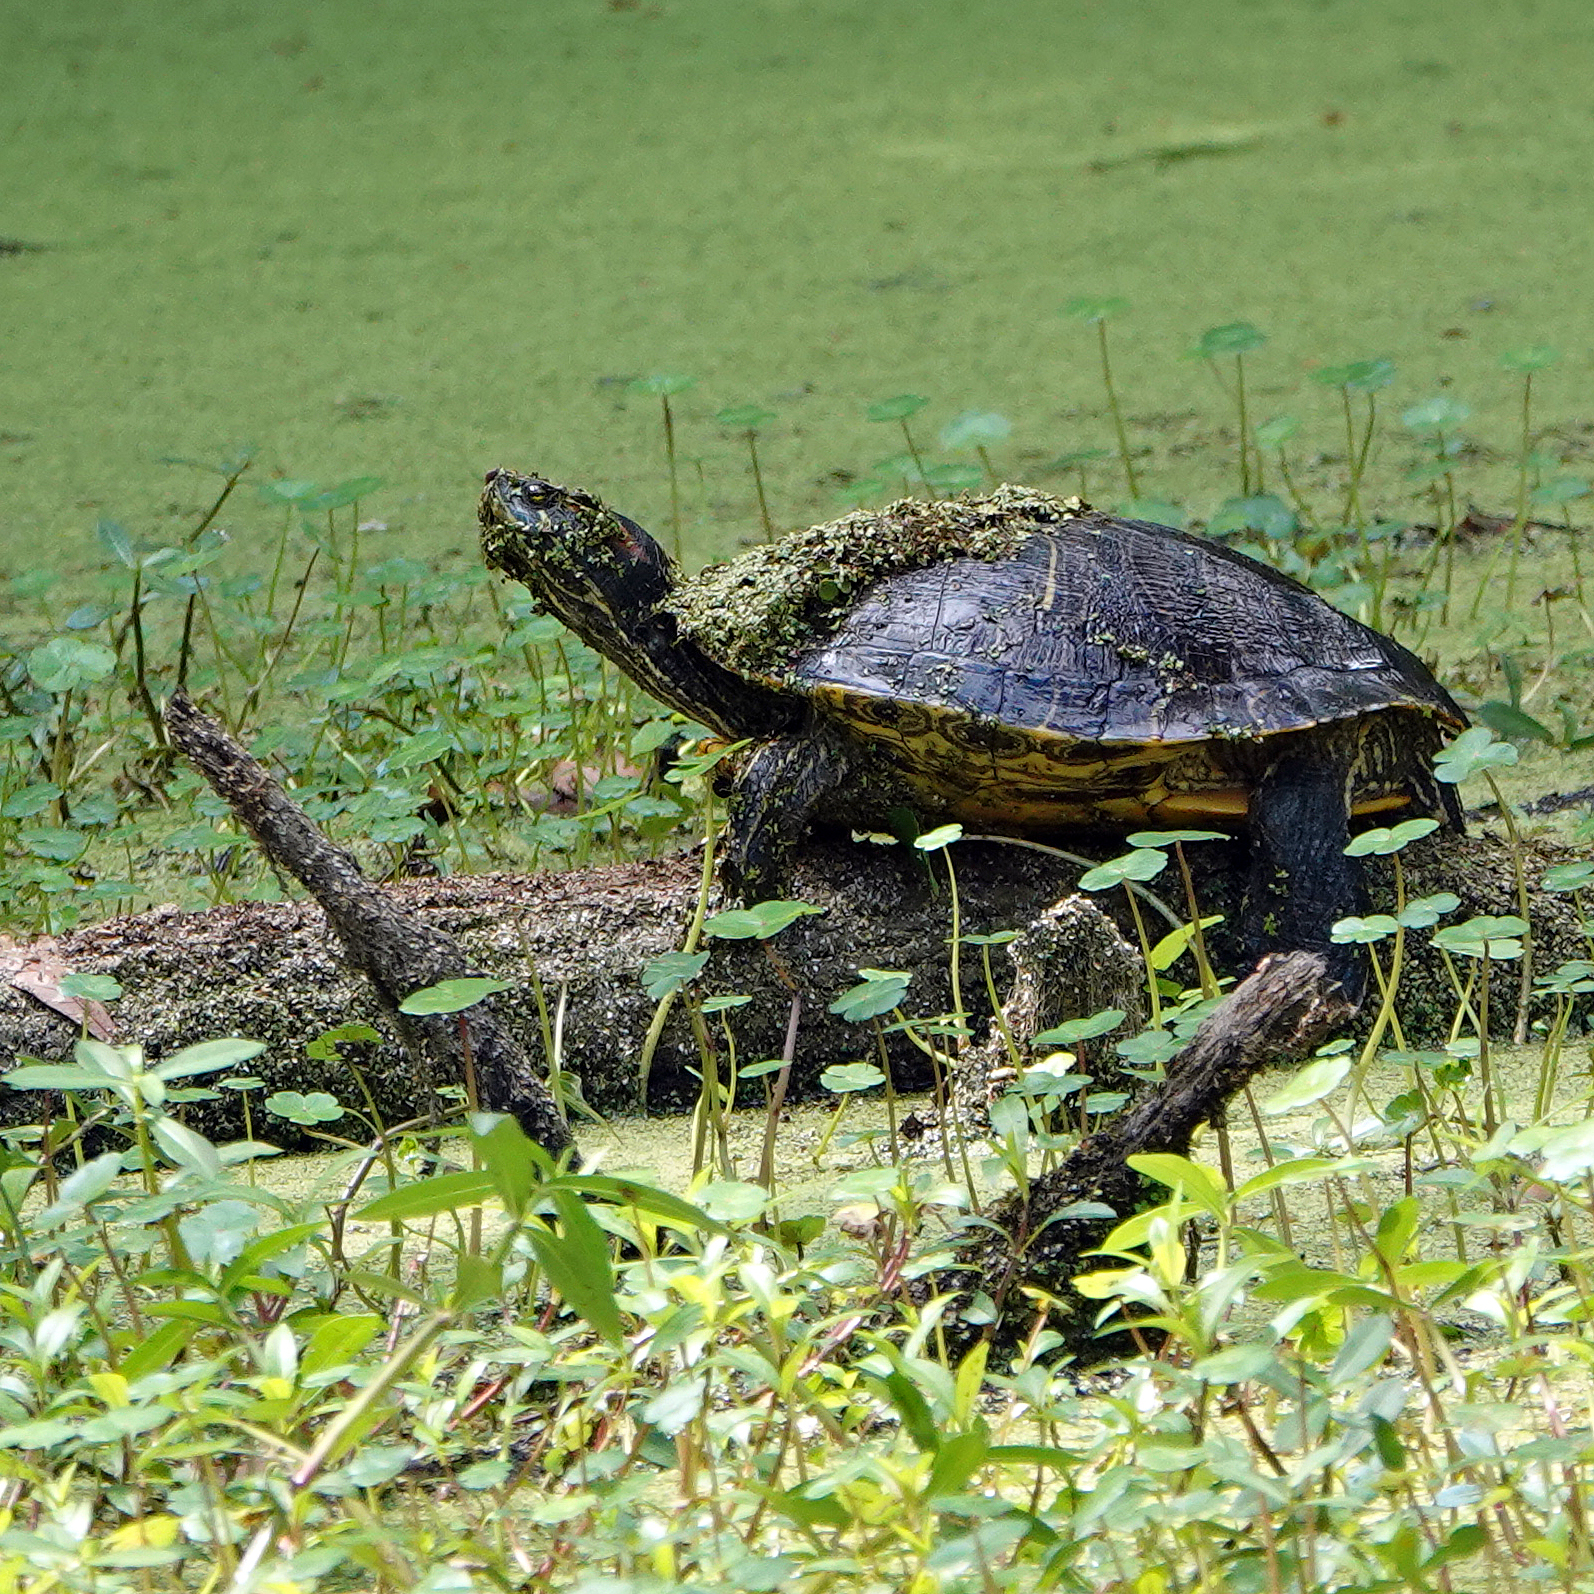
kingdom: Animalia
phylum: Chordata
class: Testudines
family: Emydidae
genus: Trachemys
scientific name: Trachemys scripta
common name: Slider
